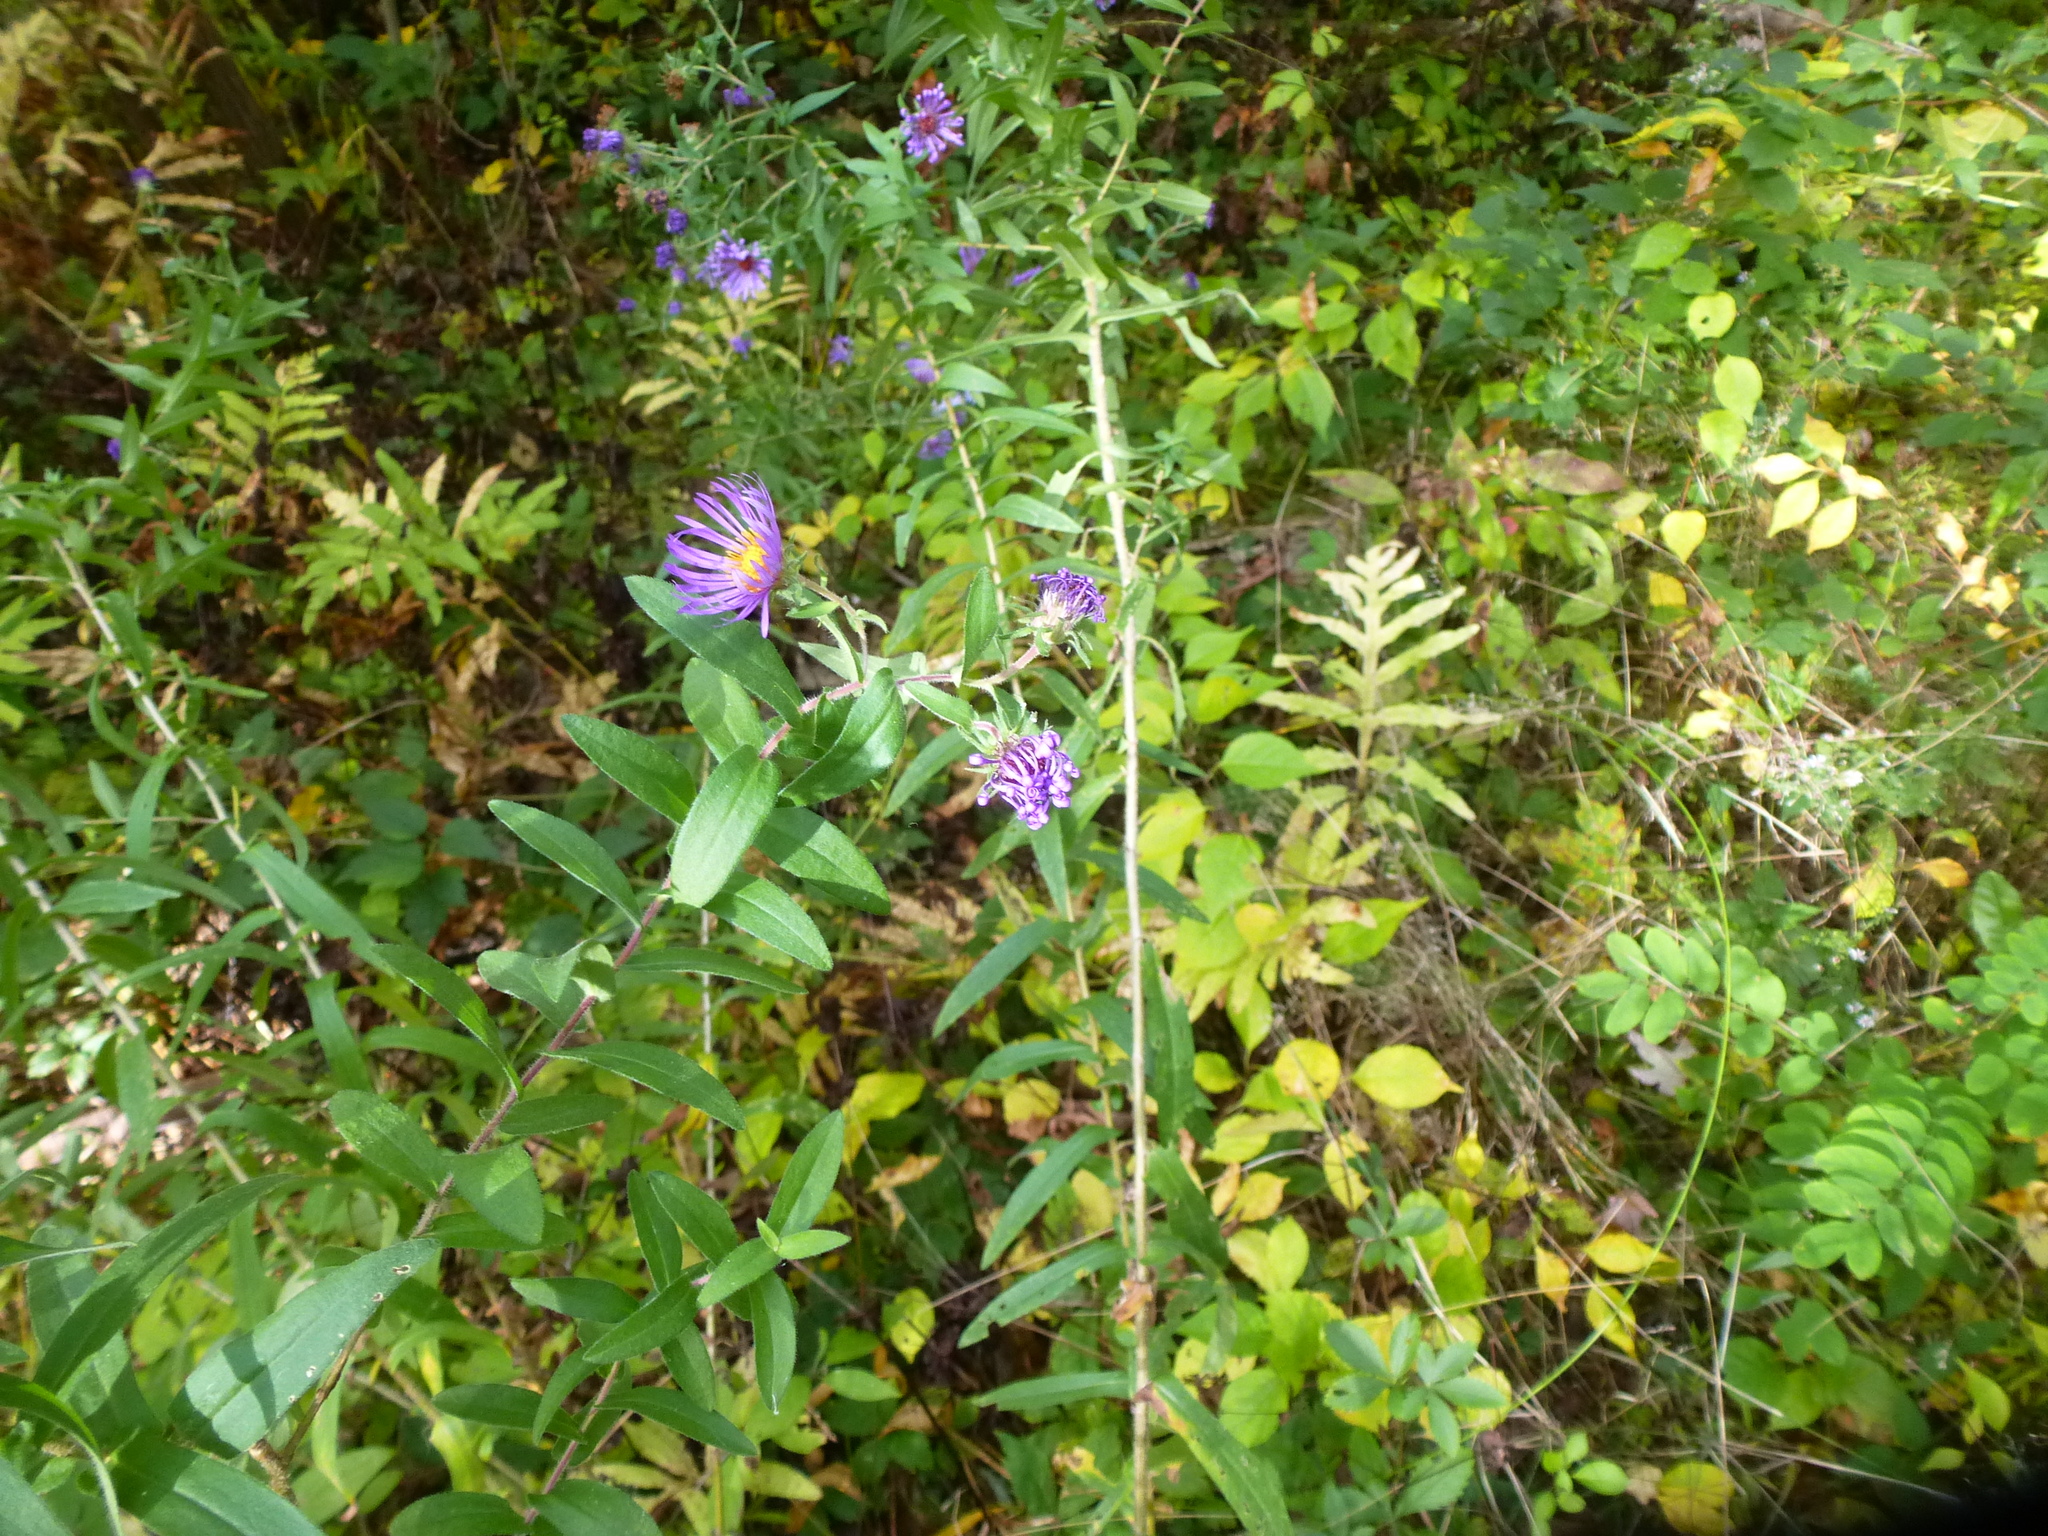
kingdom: Plantae
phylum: Tracheophyta
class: Magnoliopsida
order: Asterales
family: Asteraceae
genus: Symphyotrichum
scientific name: Symphyotrichum novae-angliae
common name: Michaelmas daisy
